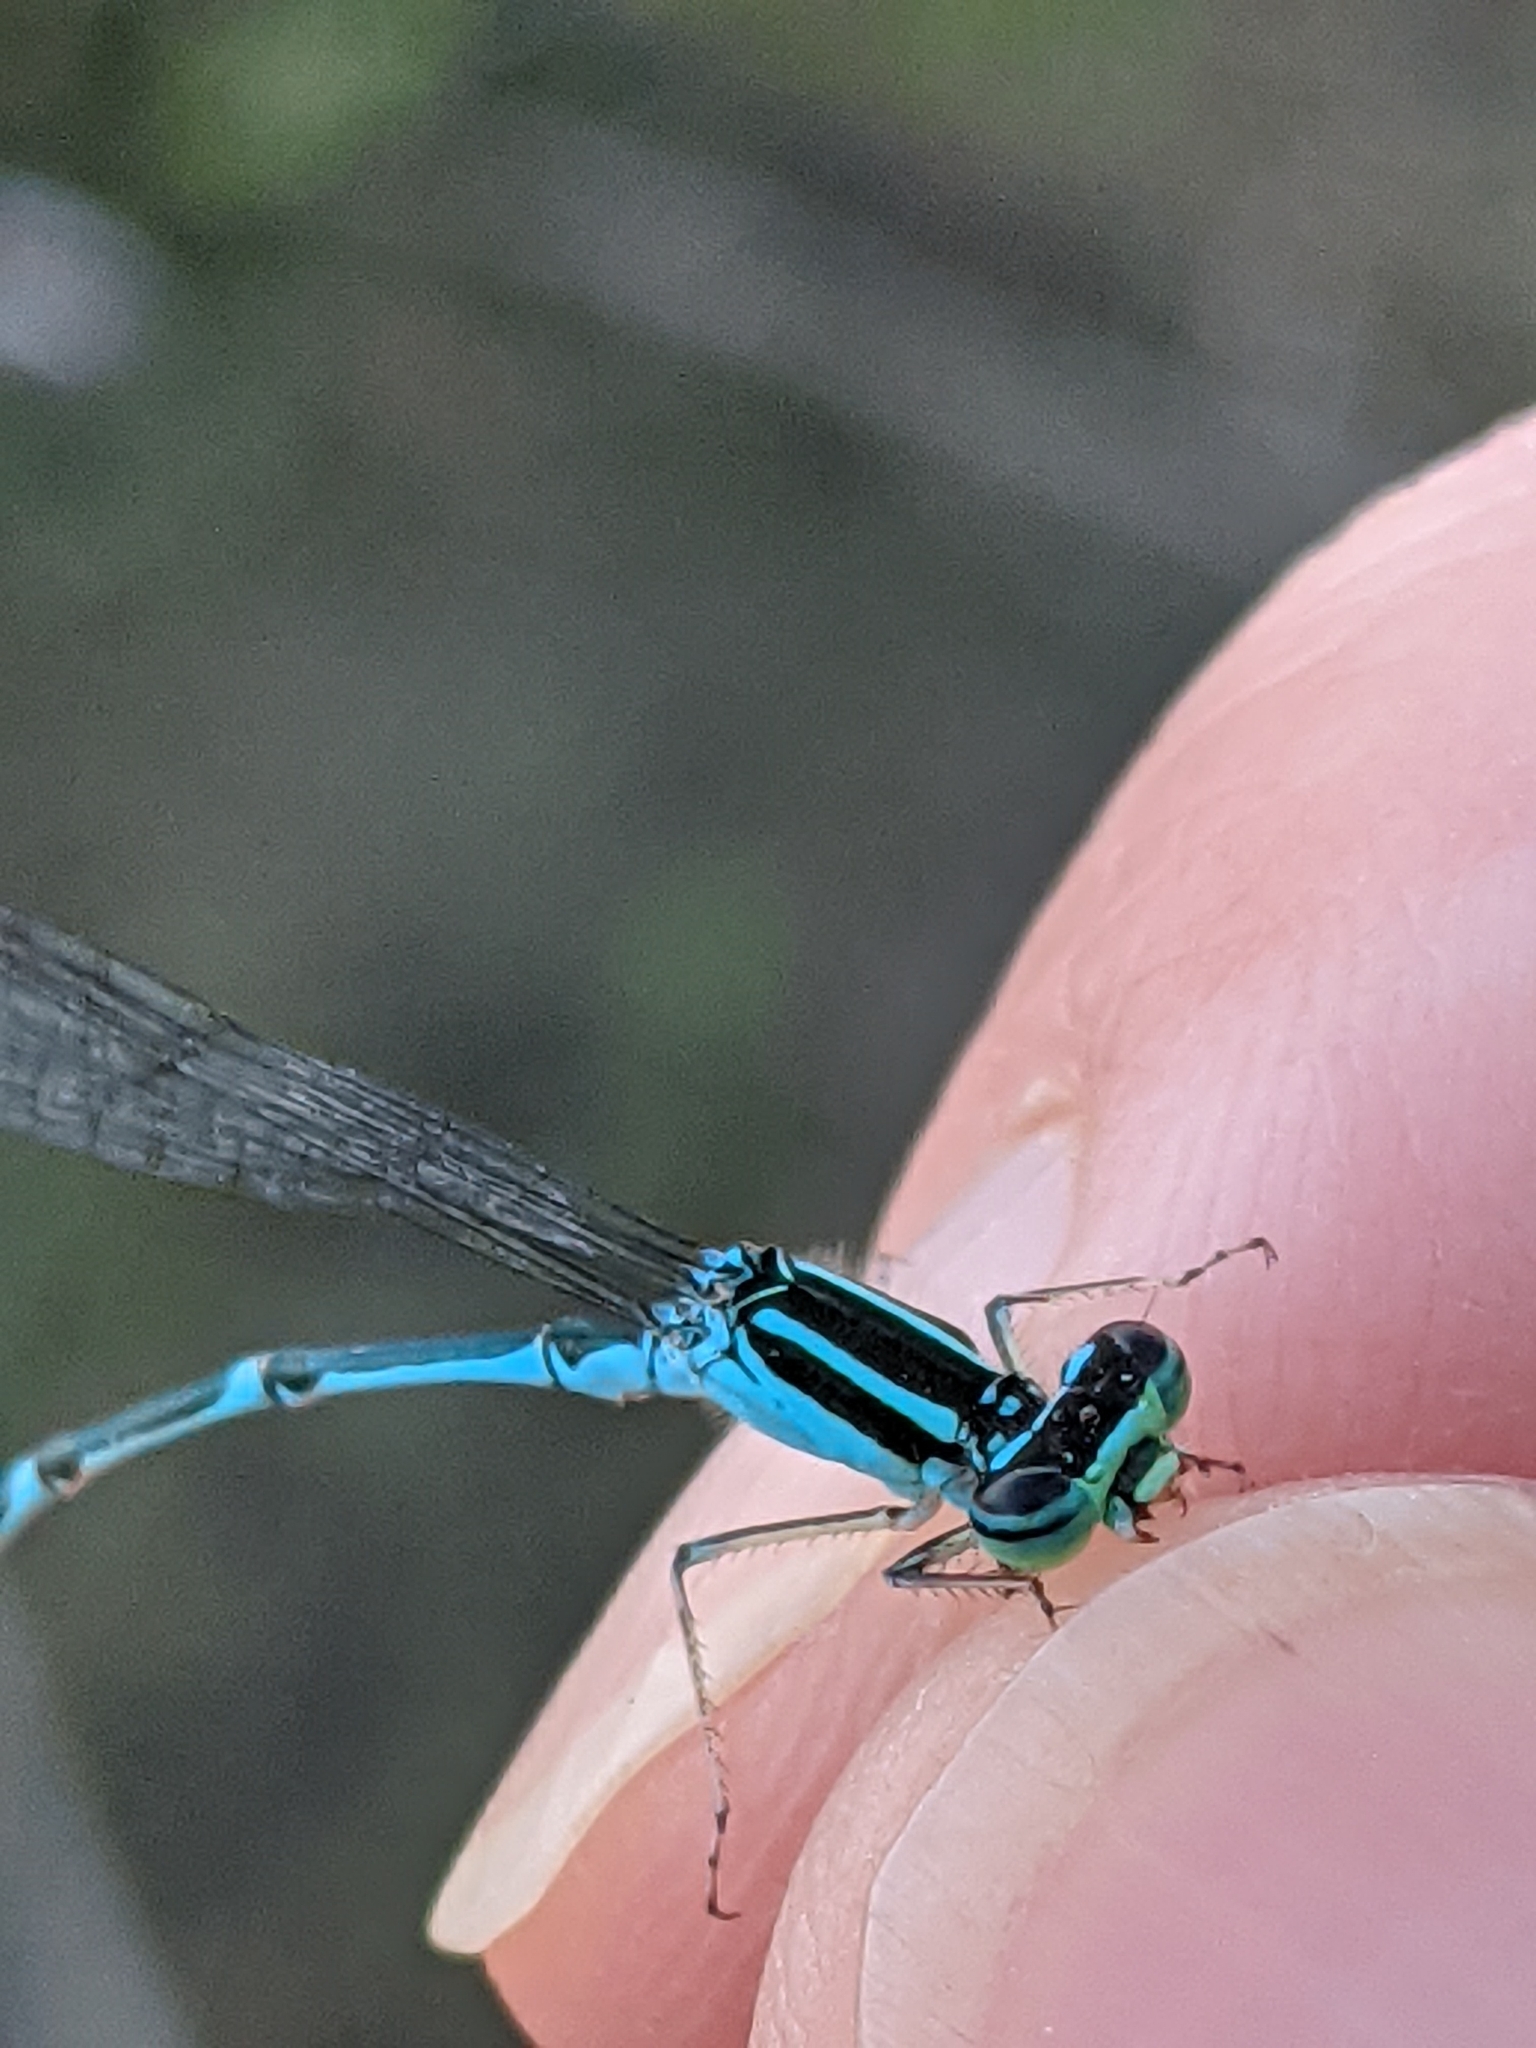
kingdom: Animalia
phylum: Arthropoda
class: Insecta
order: Odonata
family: Coenagrionidae
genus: Enallagma
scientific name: Enallagma exsulans
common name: Stream bluet
